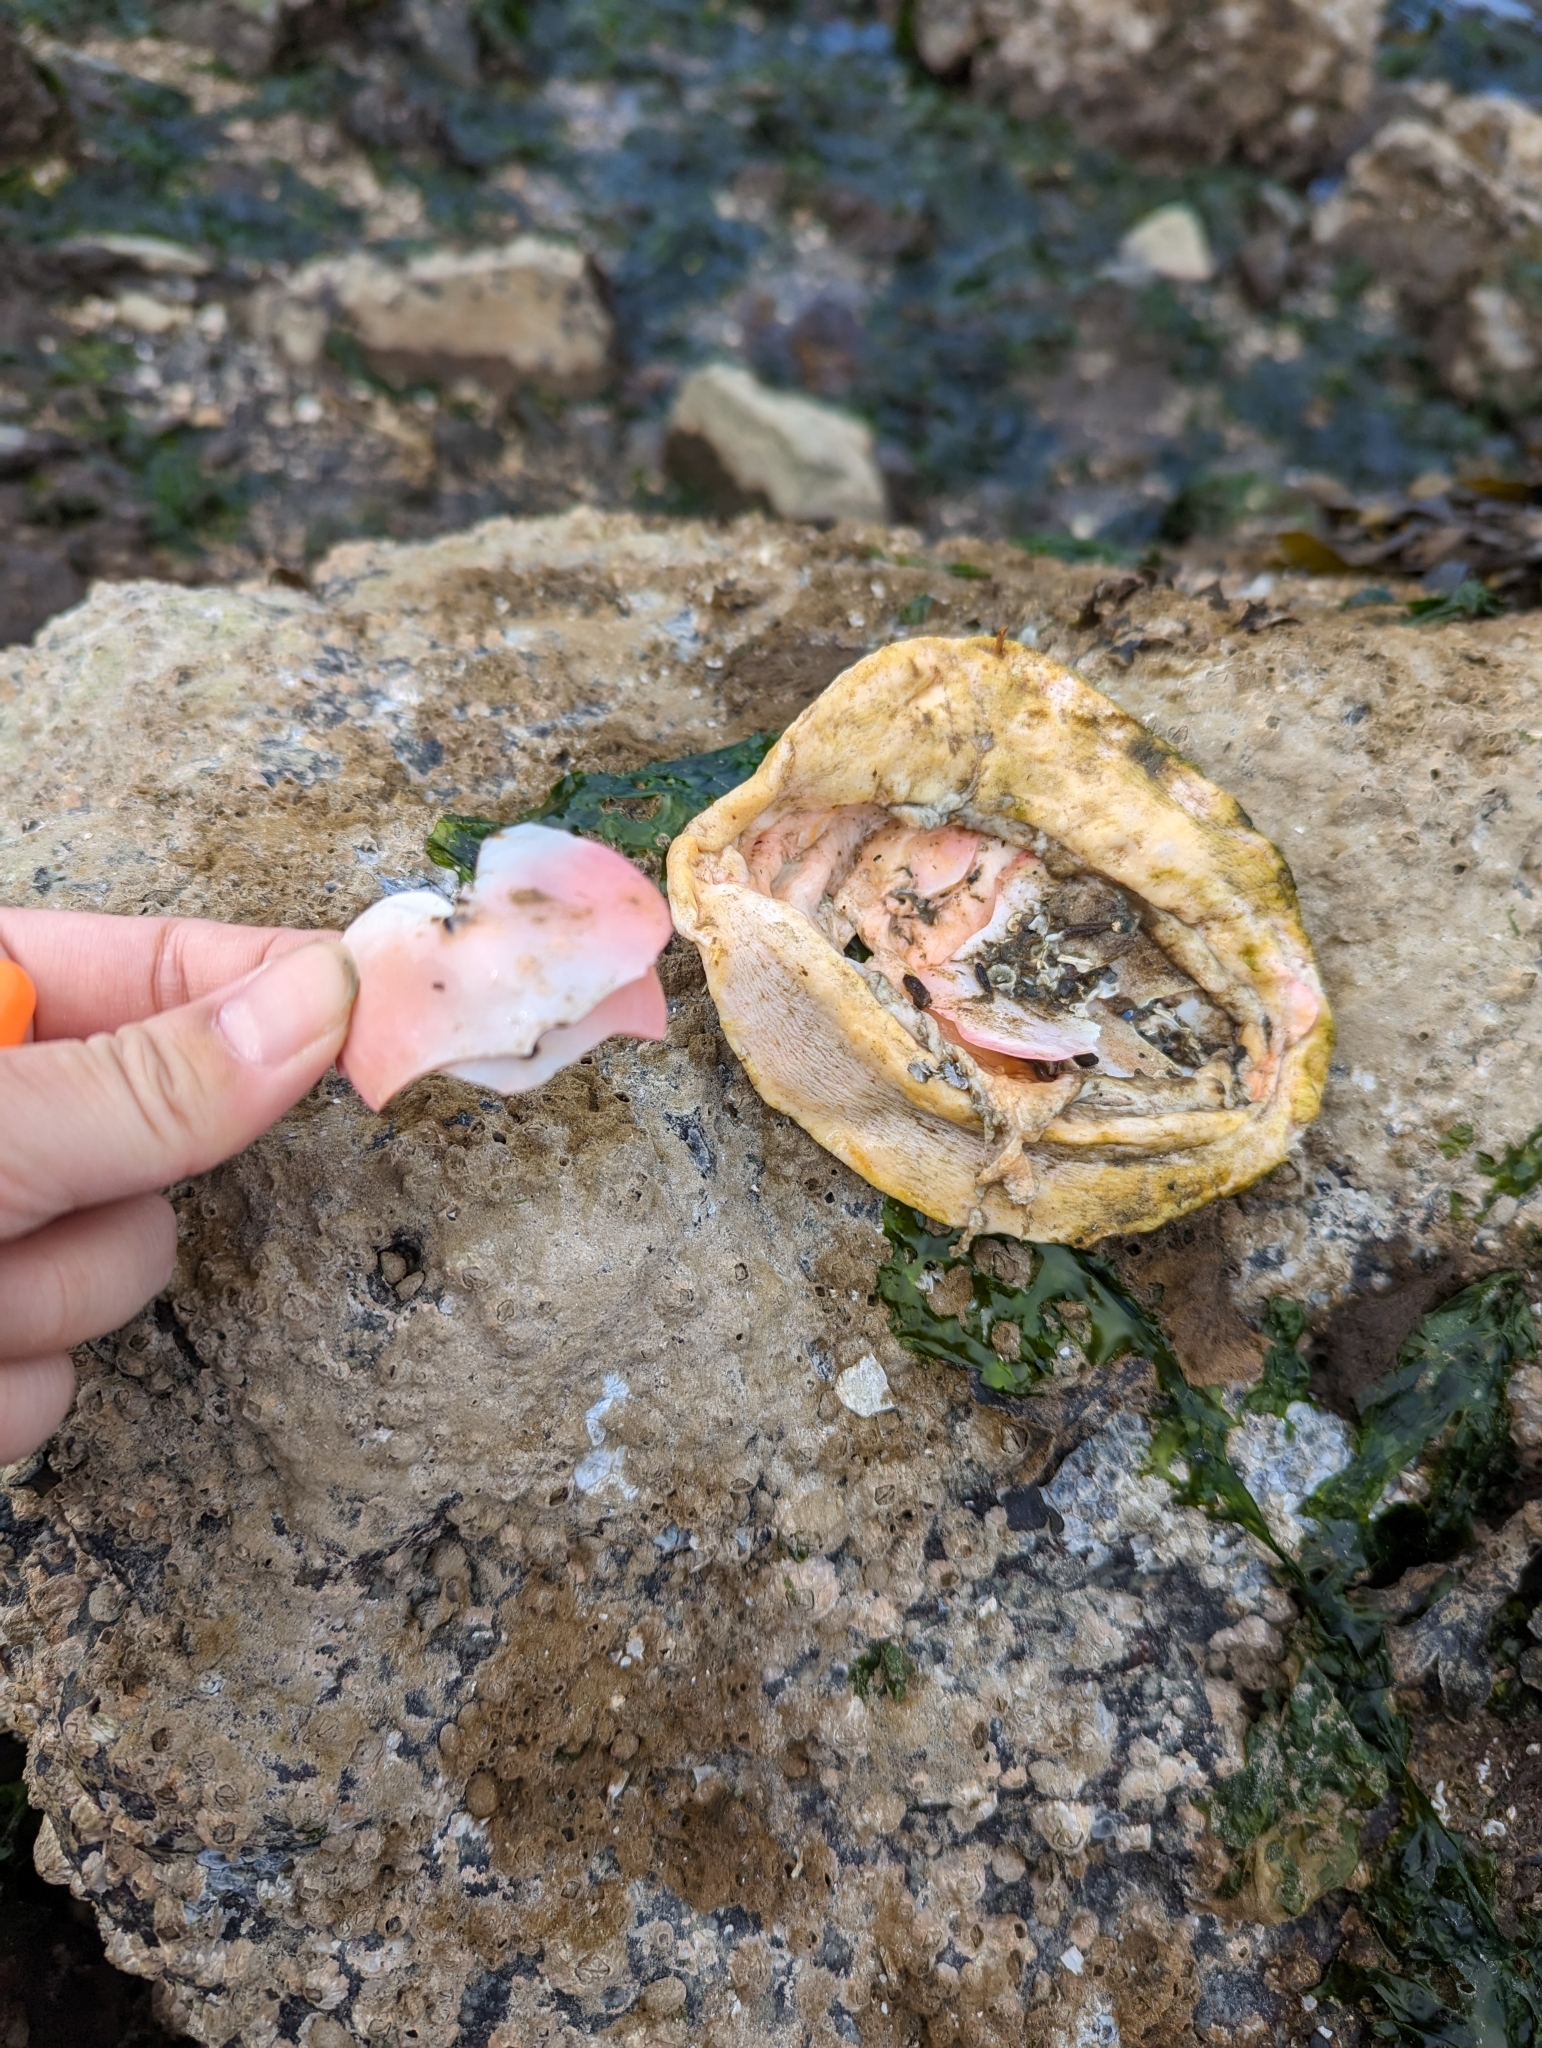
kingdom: Animalia
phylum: Mollusca
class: Polyplacophora
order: Chitonida
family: Acanthochitonidae
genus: Cryptochiton
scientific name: Cryptochiton stelleri
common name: Giant pacific chiton
